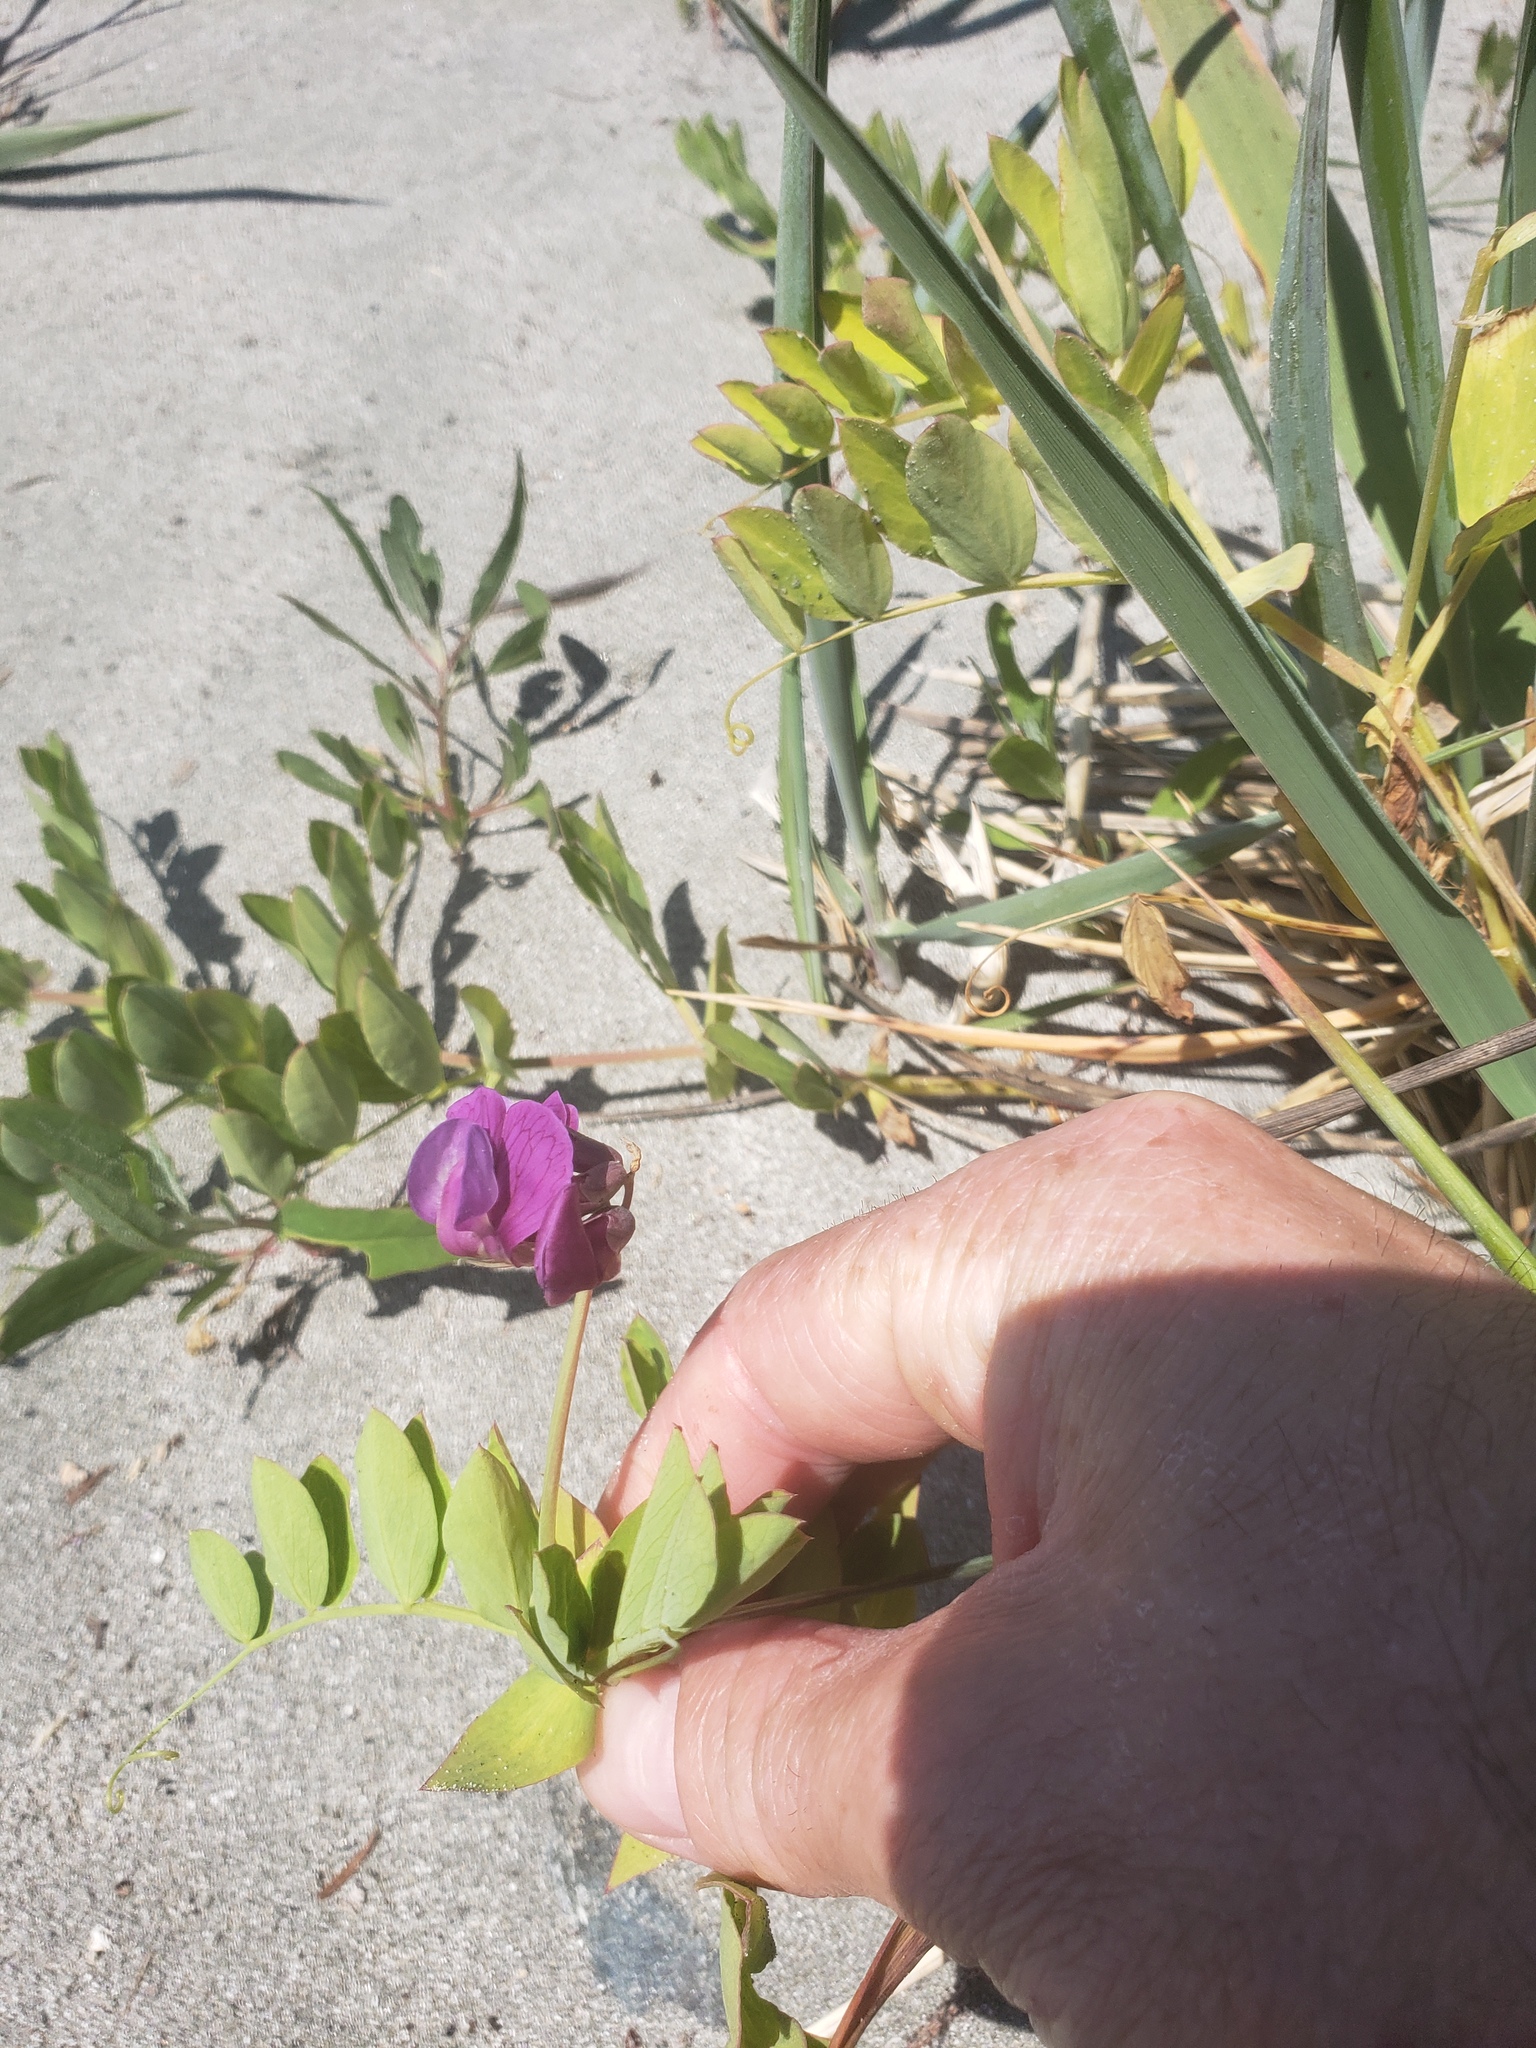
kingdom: Plantae
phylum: Tracheophyta
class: Magnoliopsida
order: Fabales
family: Fabaceae
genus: Lathyrus
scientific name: Lathyrus japonicus
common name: Sea pea
